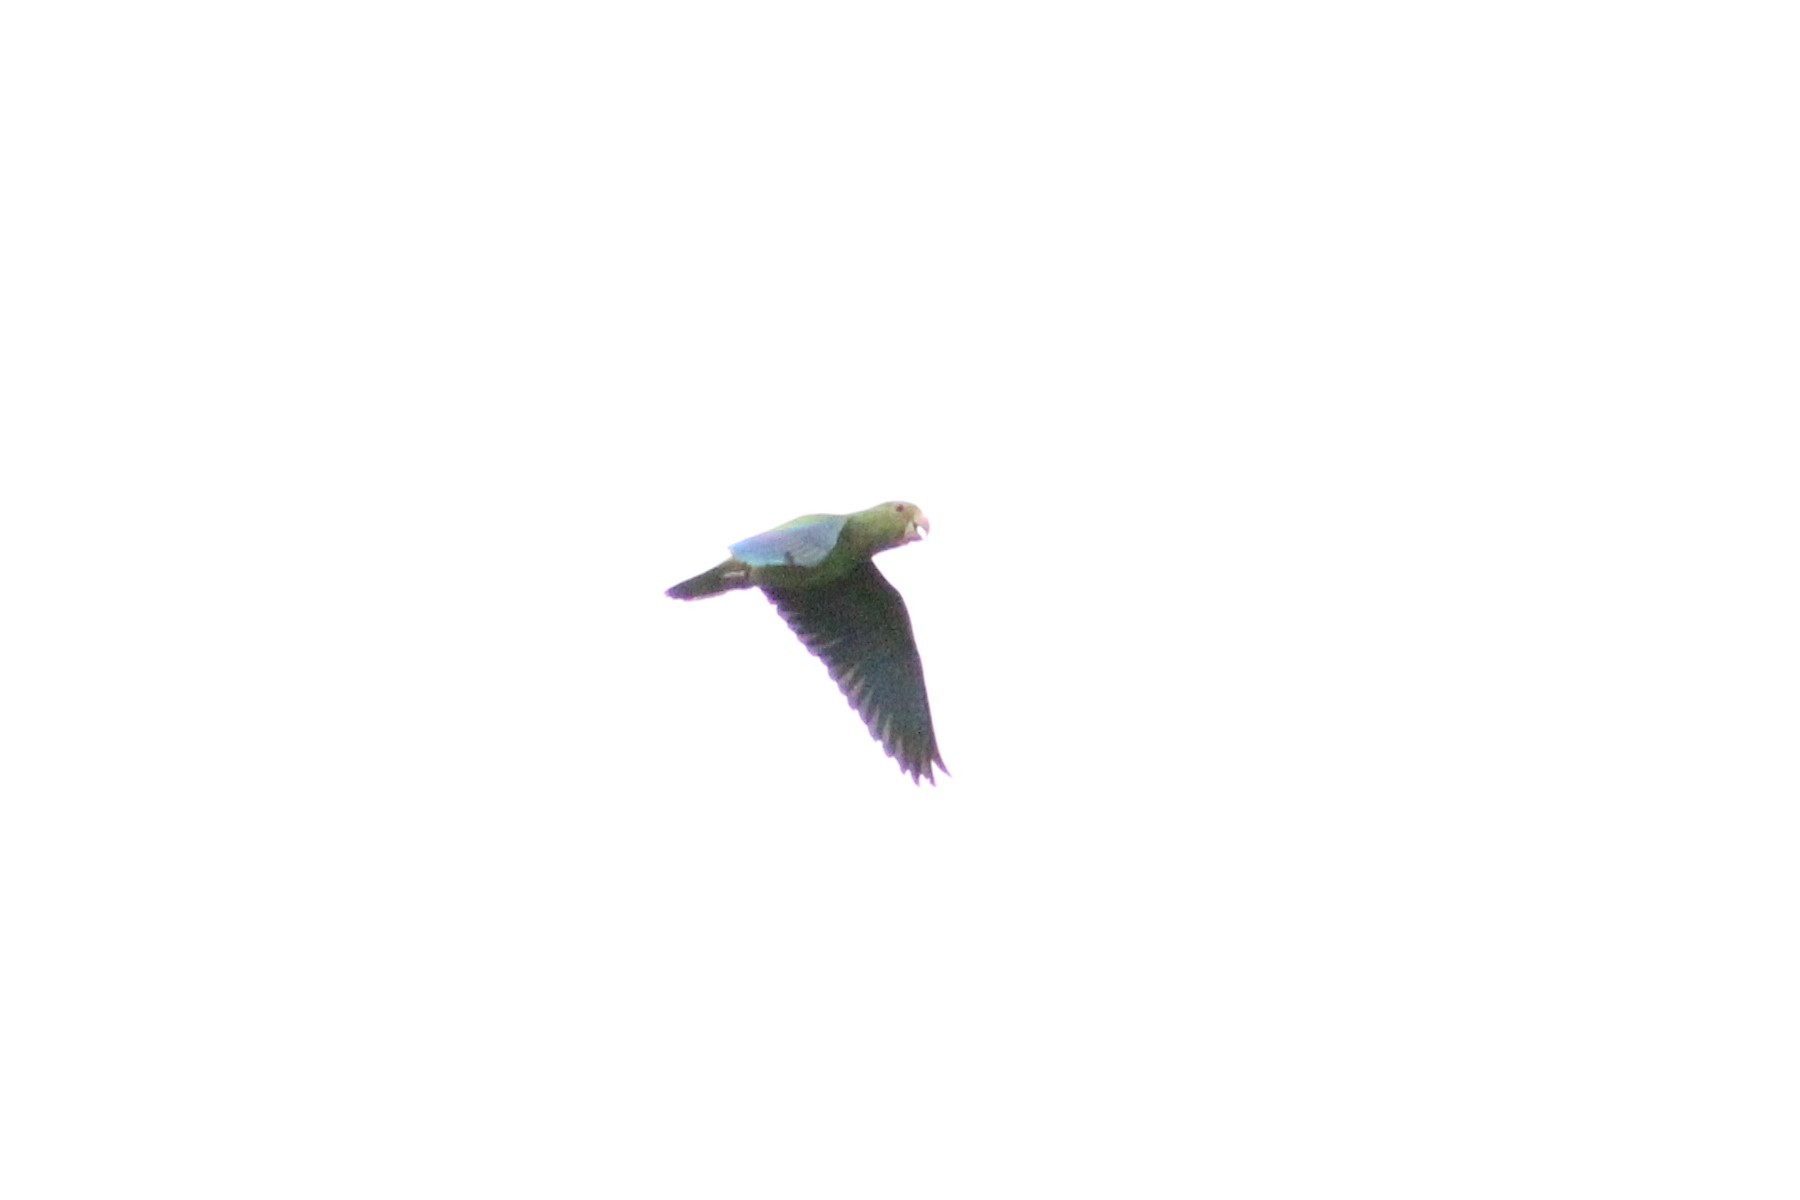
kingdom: Animalia
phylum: Chordata
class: Aves
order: Psittaciformes
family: Psittacidae
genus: Brotogeris
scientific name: Brotogeris cyanoptera
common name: Cobalt-winged parakeet
